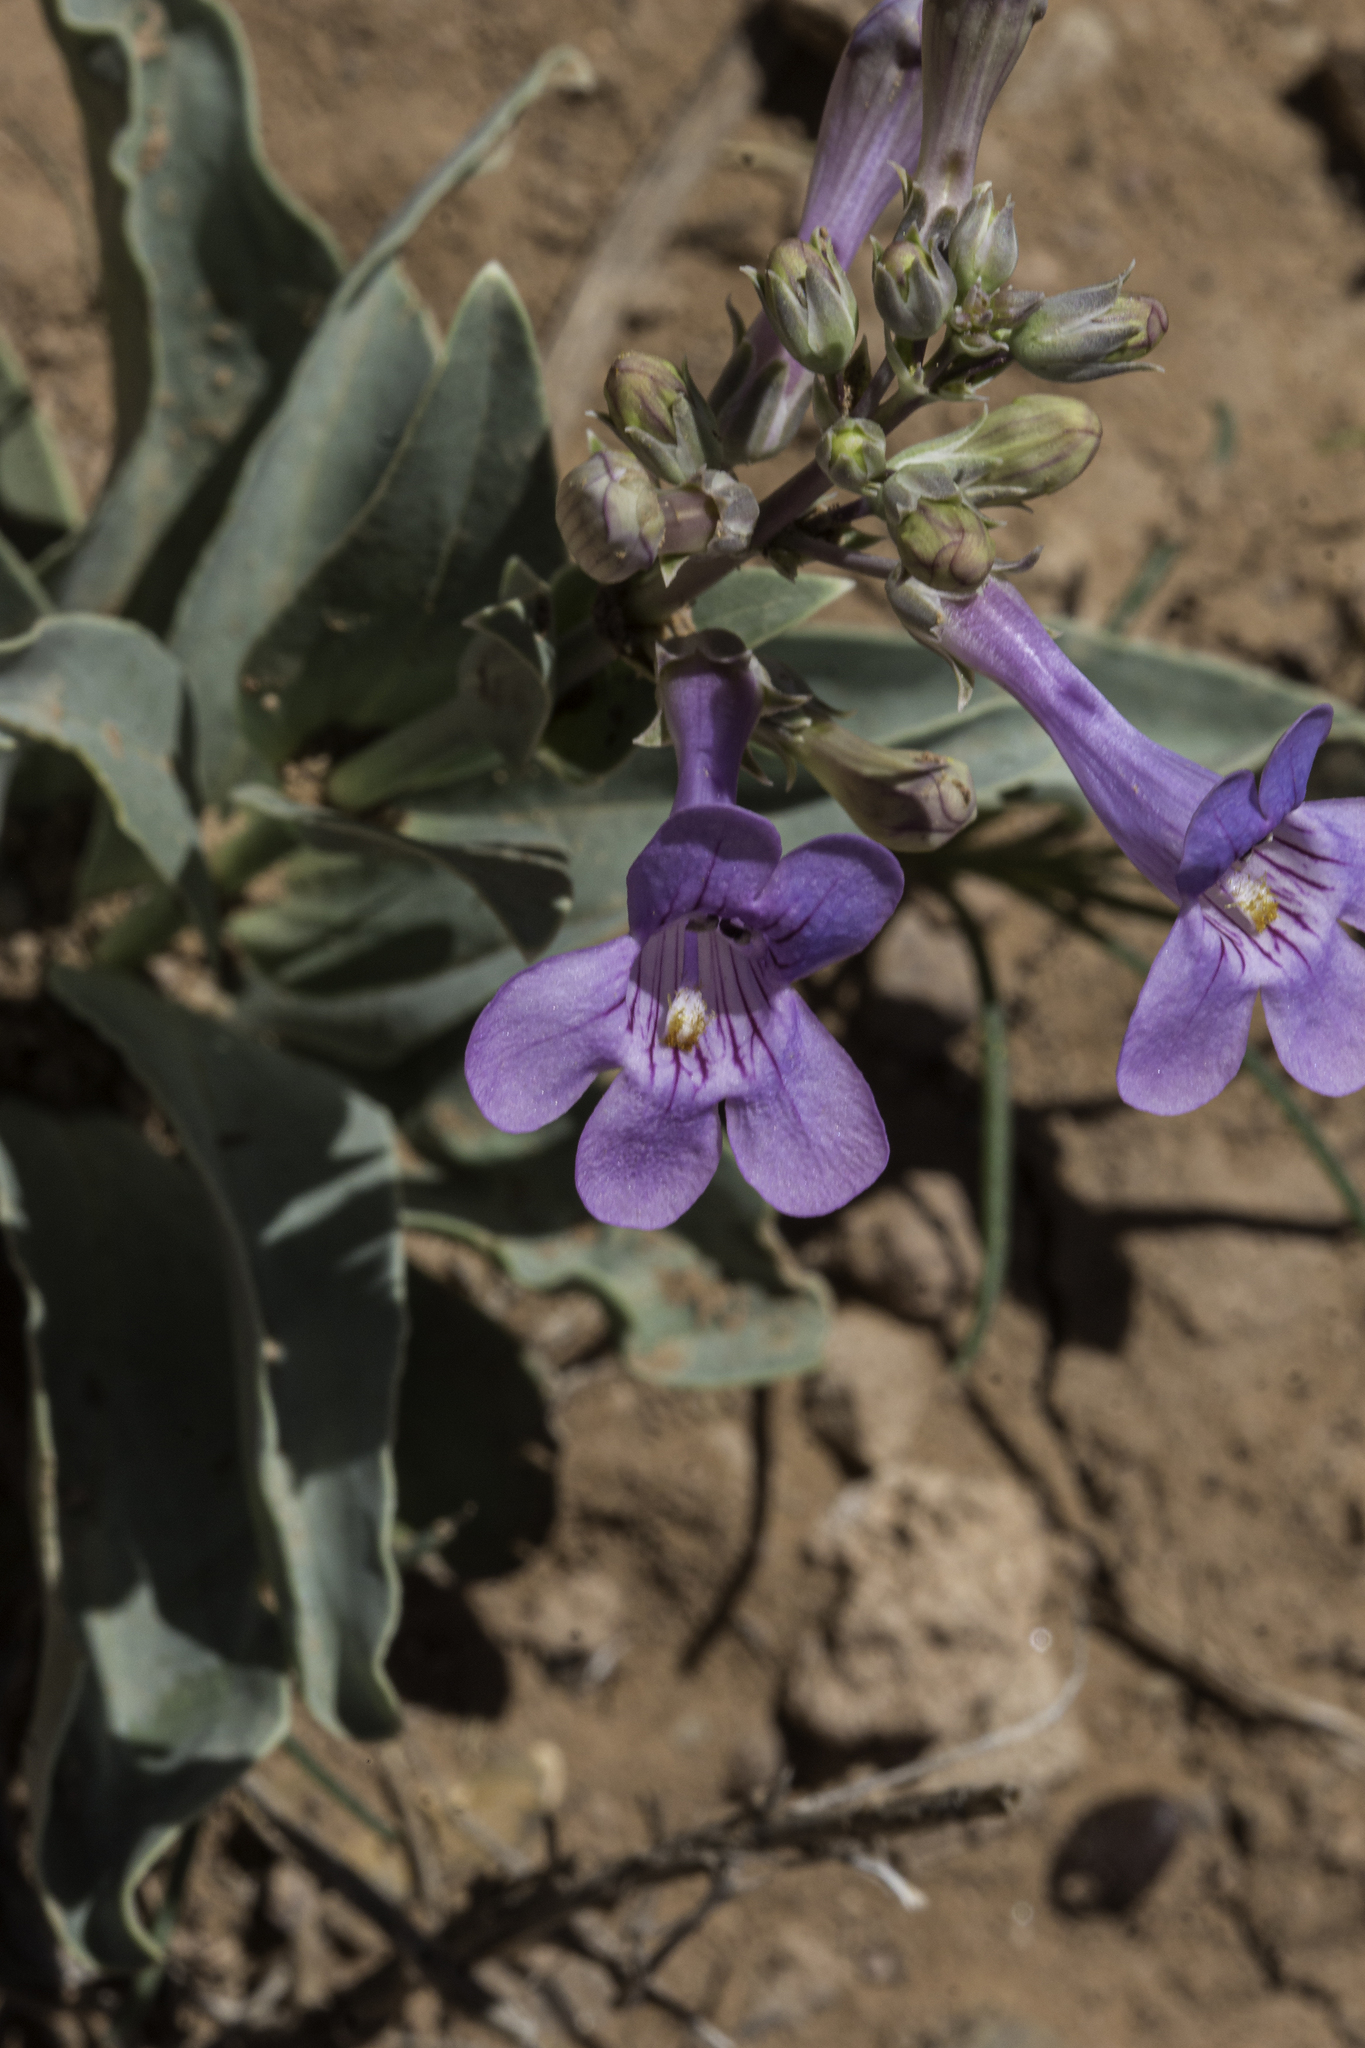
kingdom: Plantae
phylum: Tracheophyta
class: Magnoliopsida
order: Lamiales
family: Plantaginaceae
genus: Penstemon
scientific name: Penstemon fendleri
